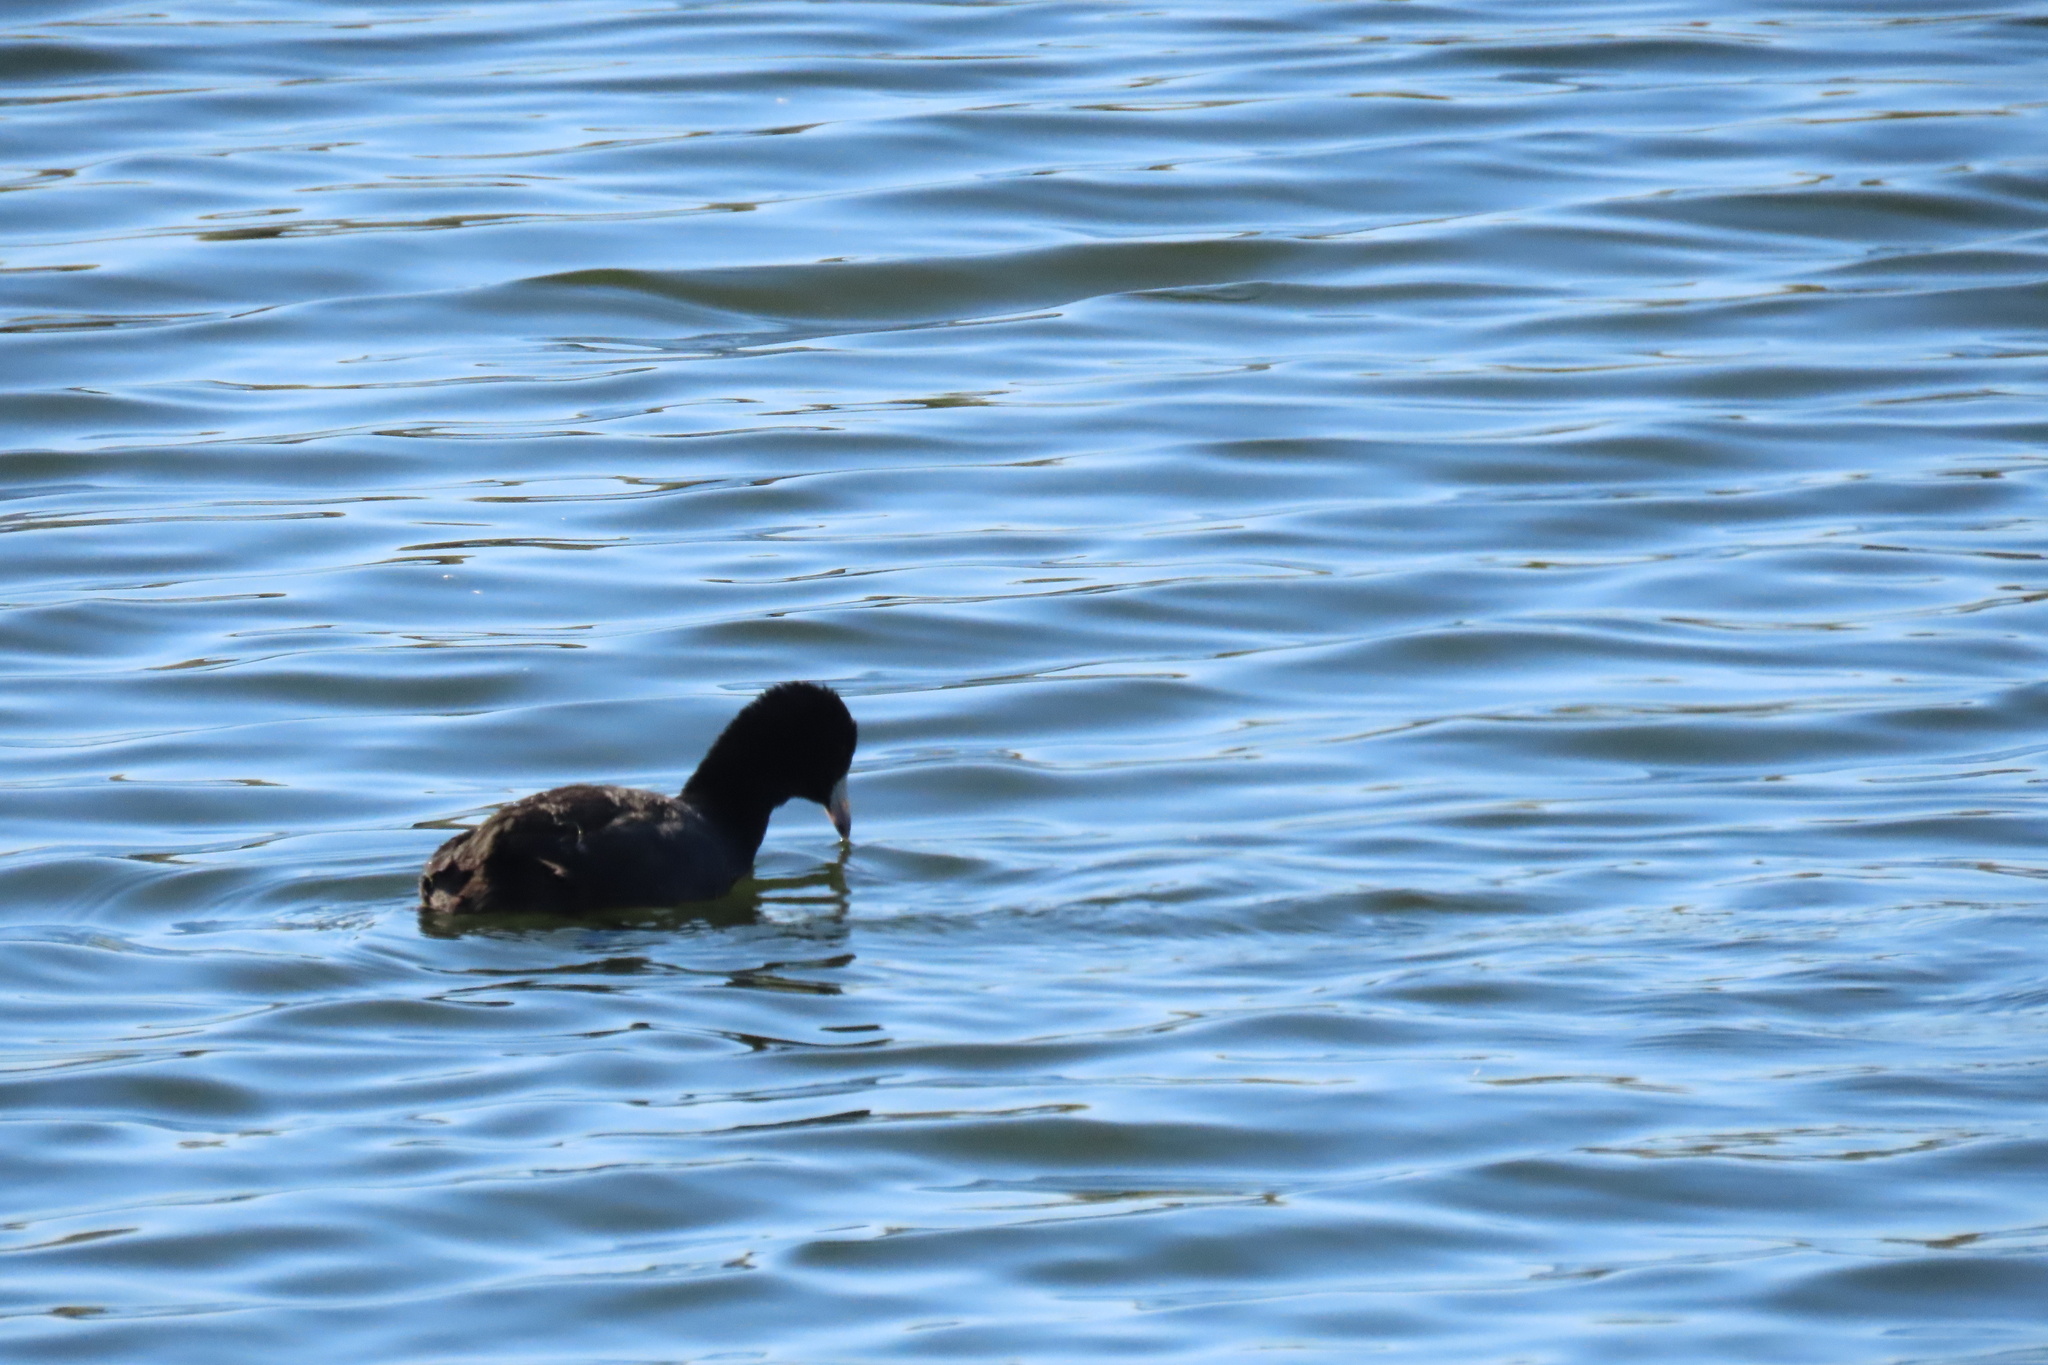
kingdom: Animalia
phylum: Chordata
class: Aves
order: Gruiformes
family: Rallidae
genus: Fulica
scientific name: Fulica americana
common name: American coot
